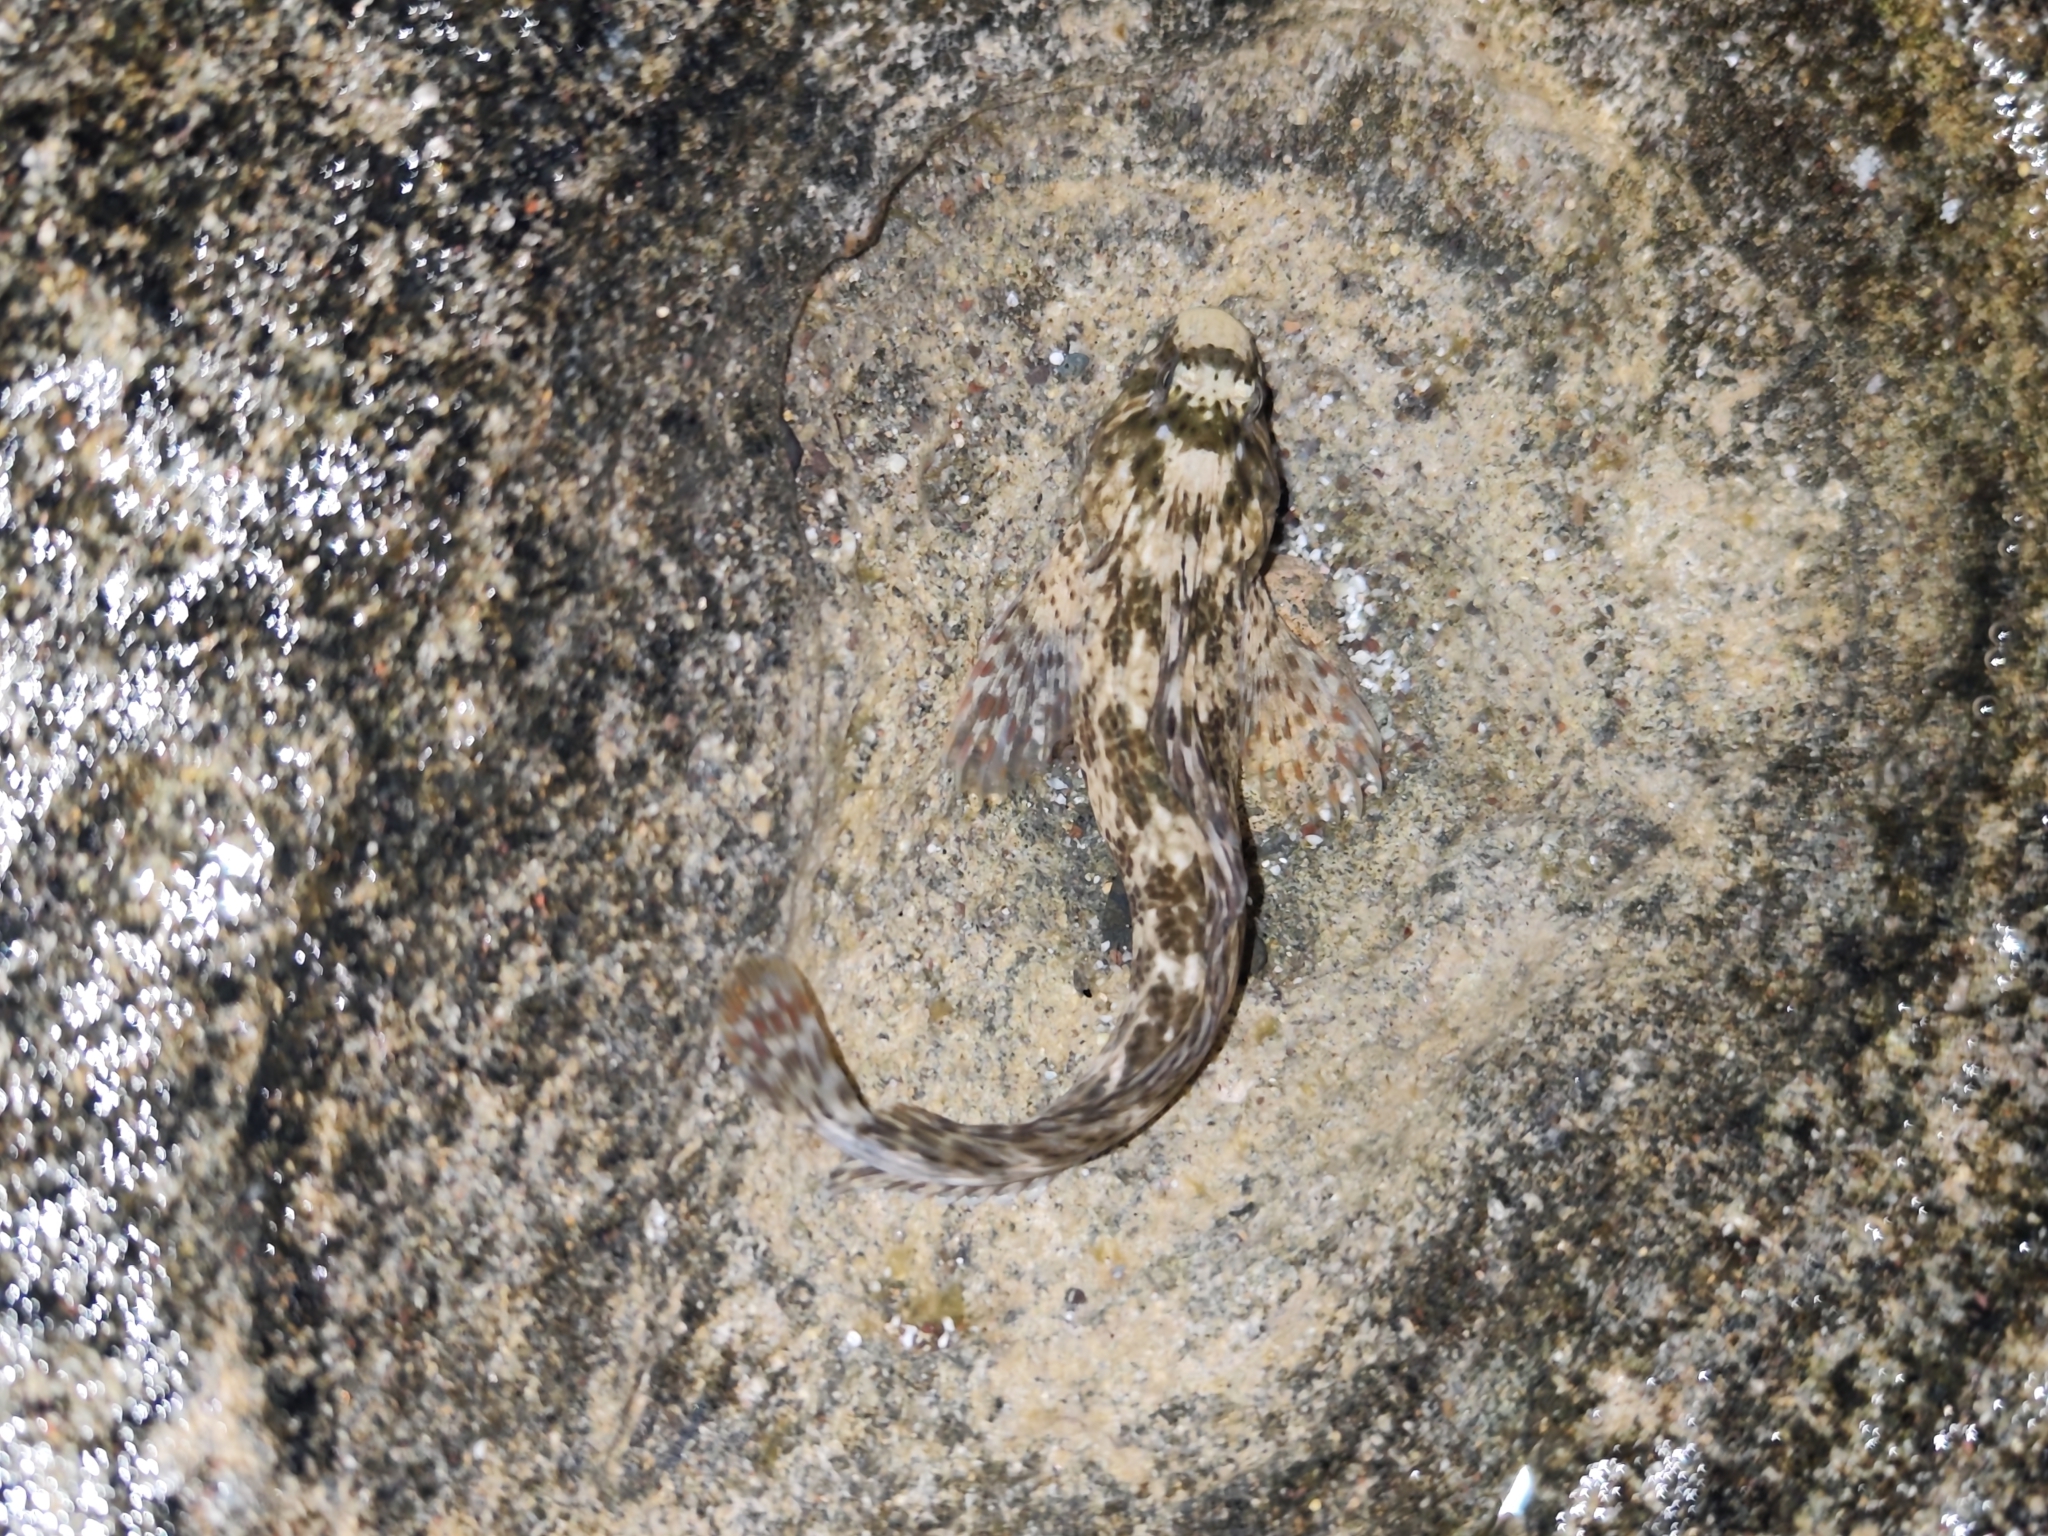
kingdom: Animalia
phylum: Chordata
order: Perciformes
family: Blenniidae
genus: Parablennius
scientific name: Parablennius sanguinolentus
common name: Black sea blenny
